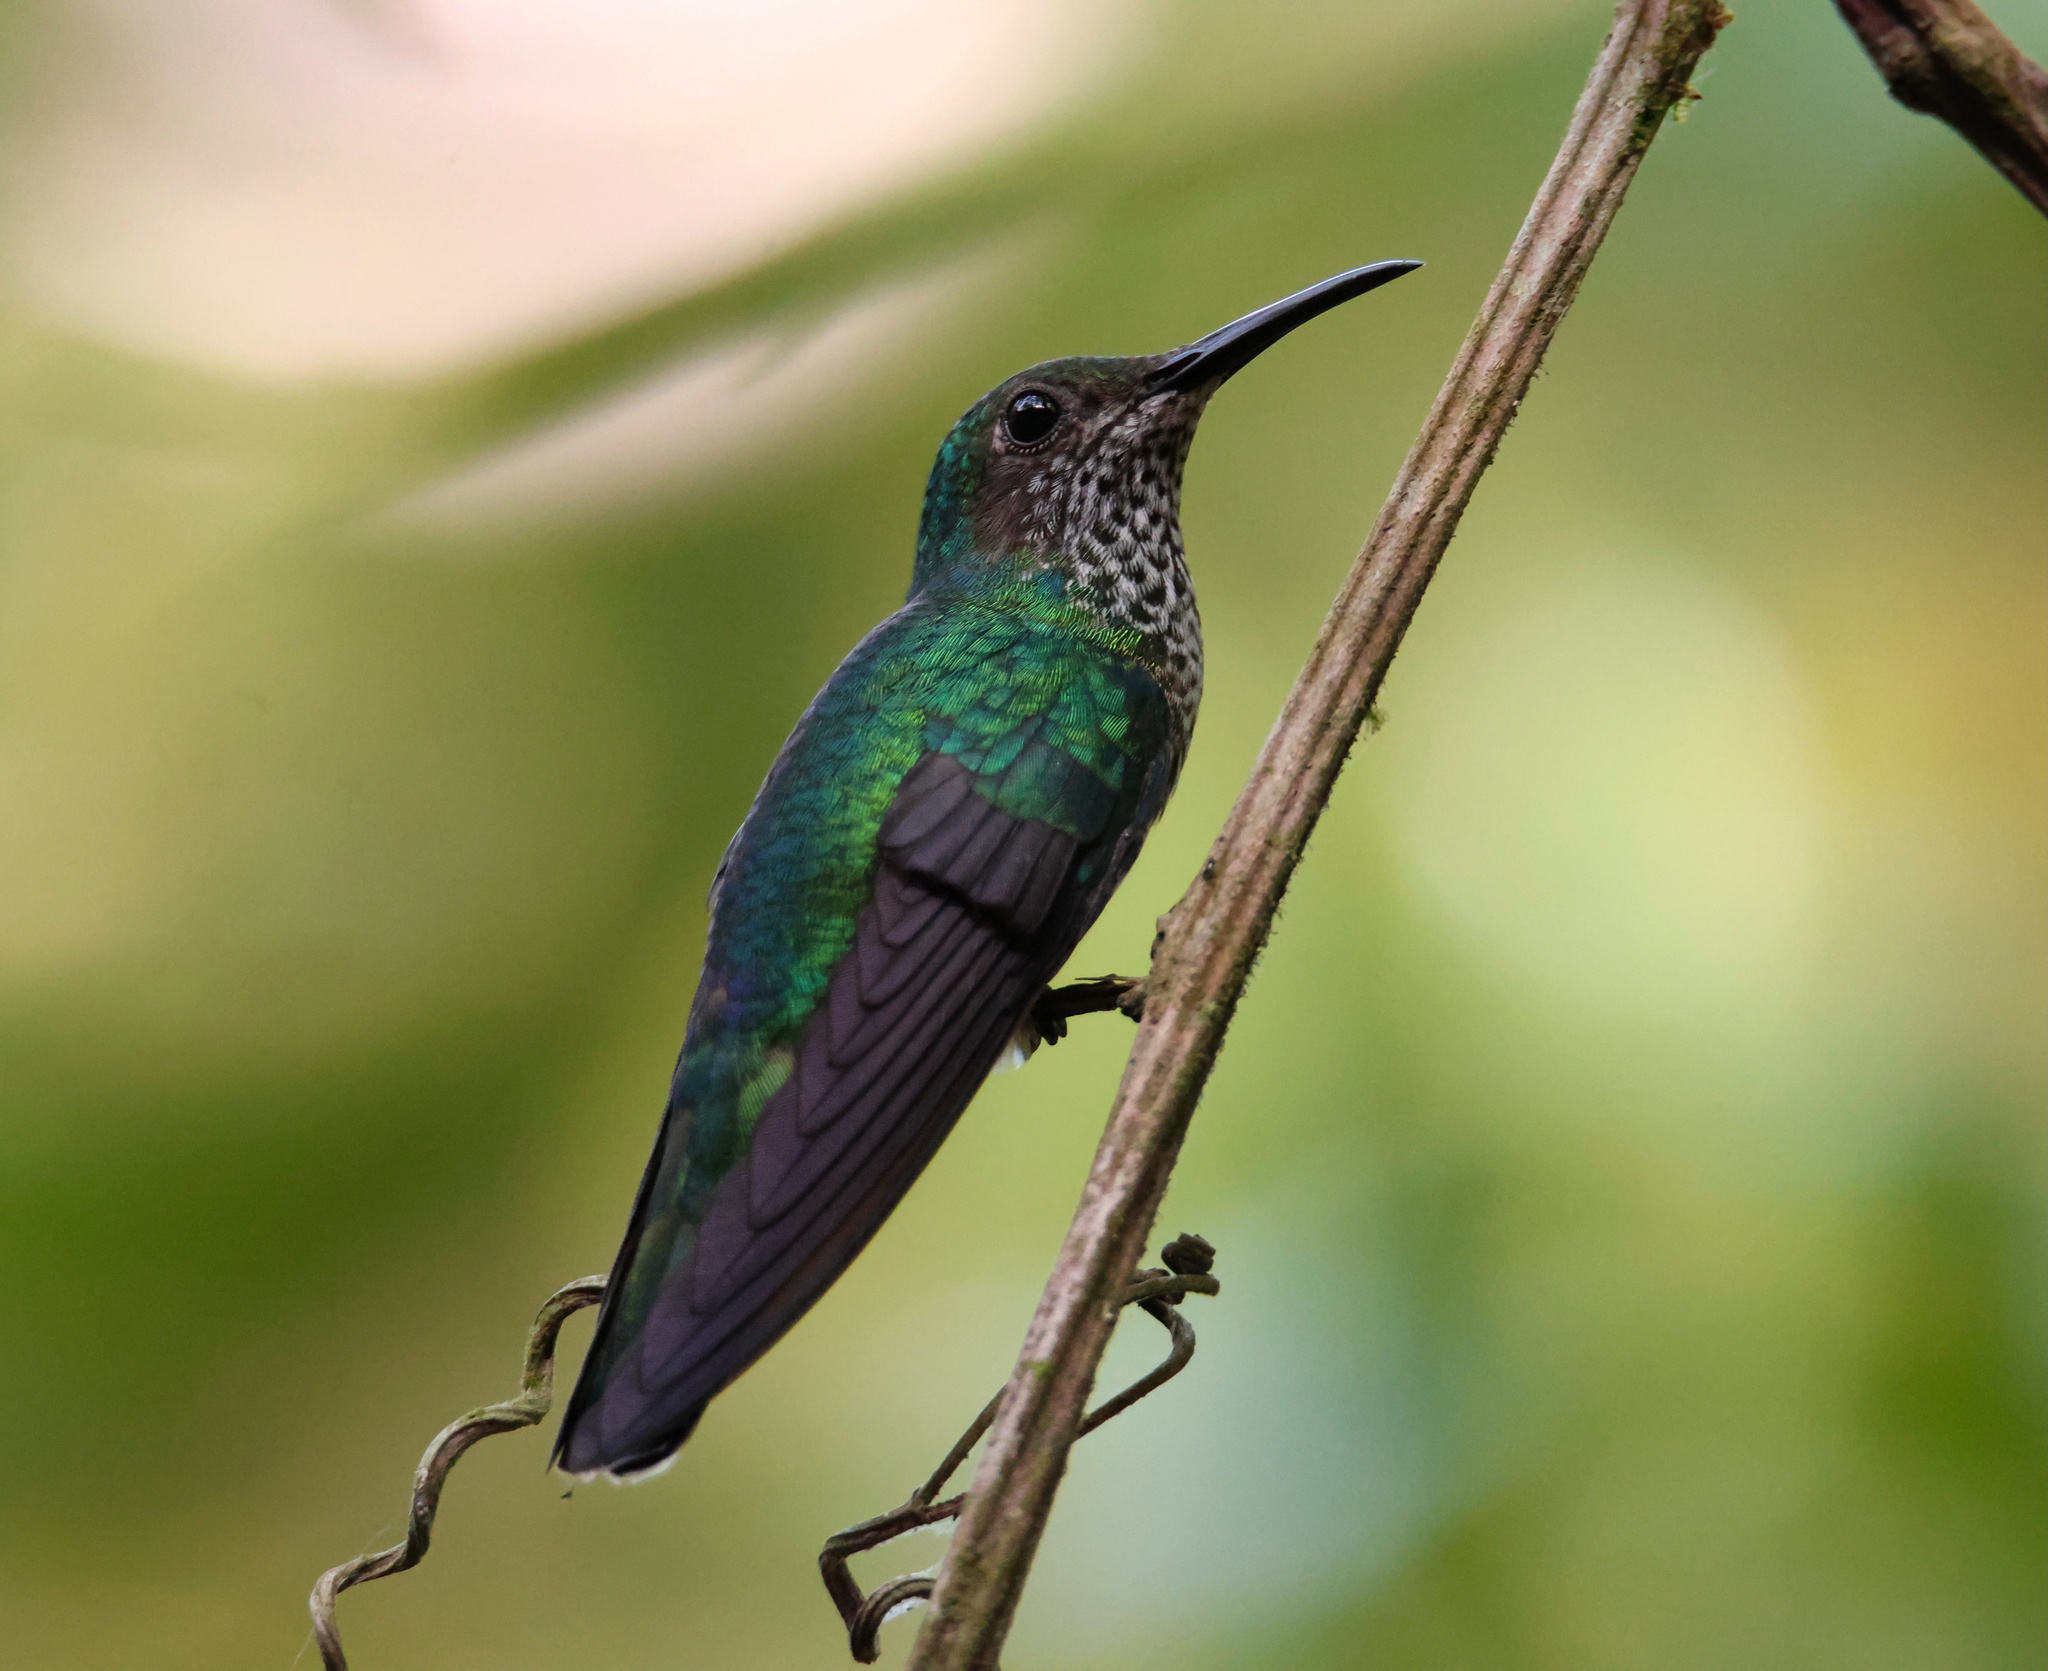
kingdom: Animalia
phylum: Chordata
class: Aves
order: Apodiformes
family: Trochilidae
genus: Florisuga
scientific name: Florisuga mellivora
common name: White-necked jacobin
